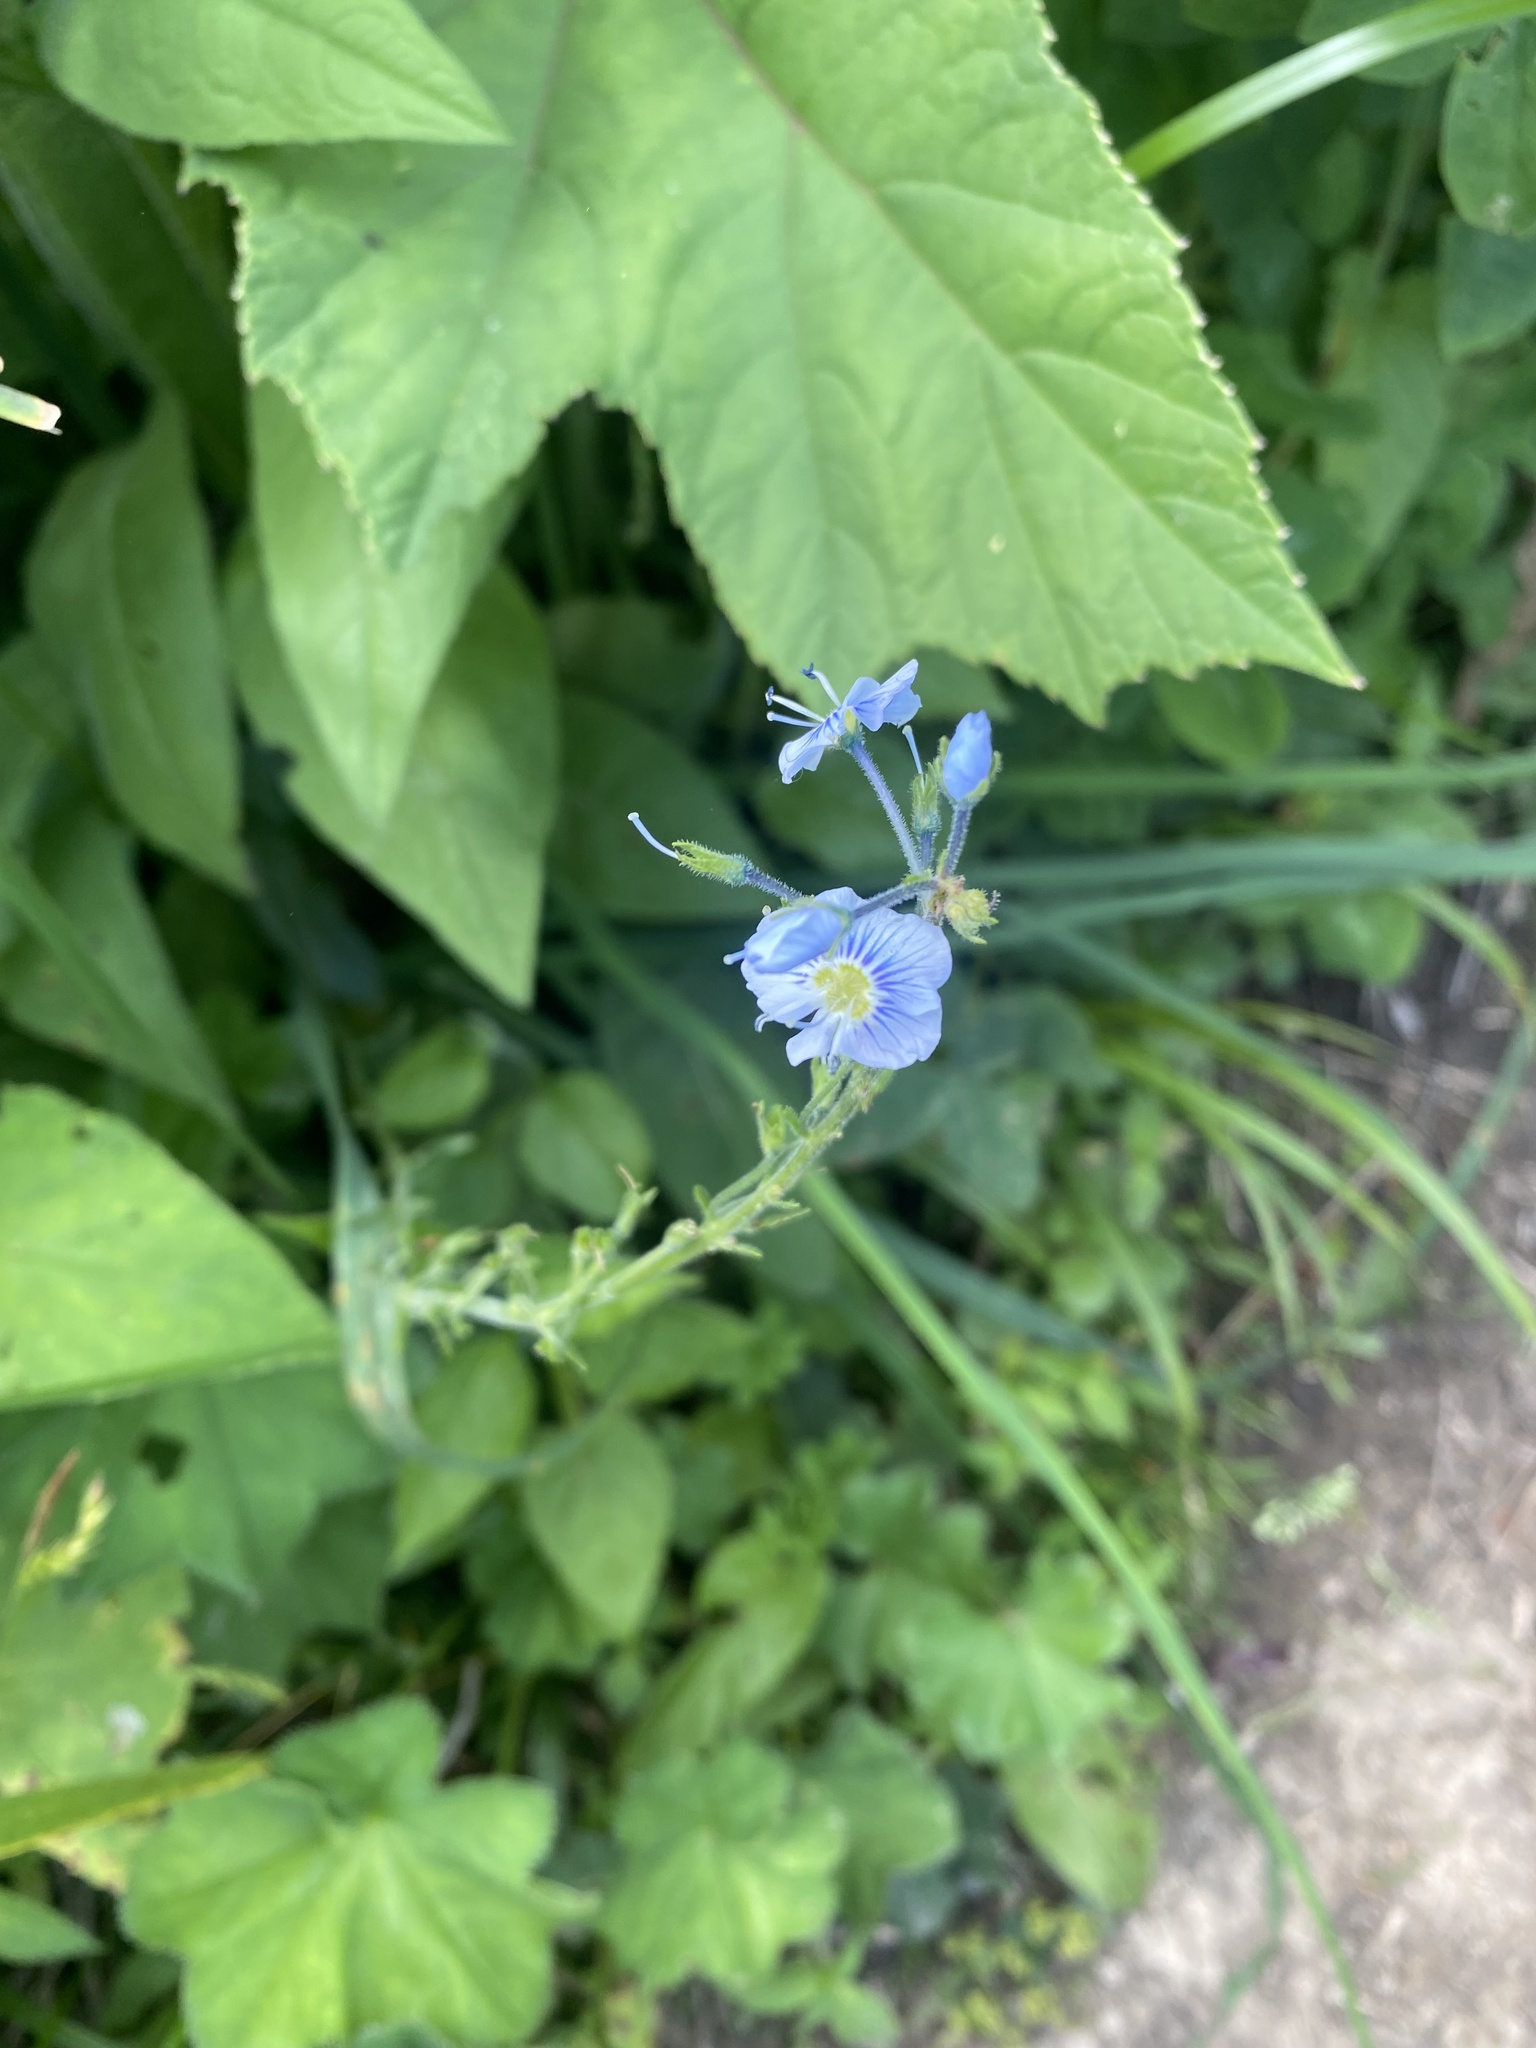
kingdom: Plantae
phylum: Tracheophyta
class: Magnoliopsida
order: Lamiales
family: Plantaginaceae
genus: Veronica
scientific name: Veronica gentianoides
